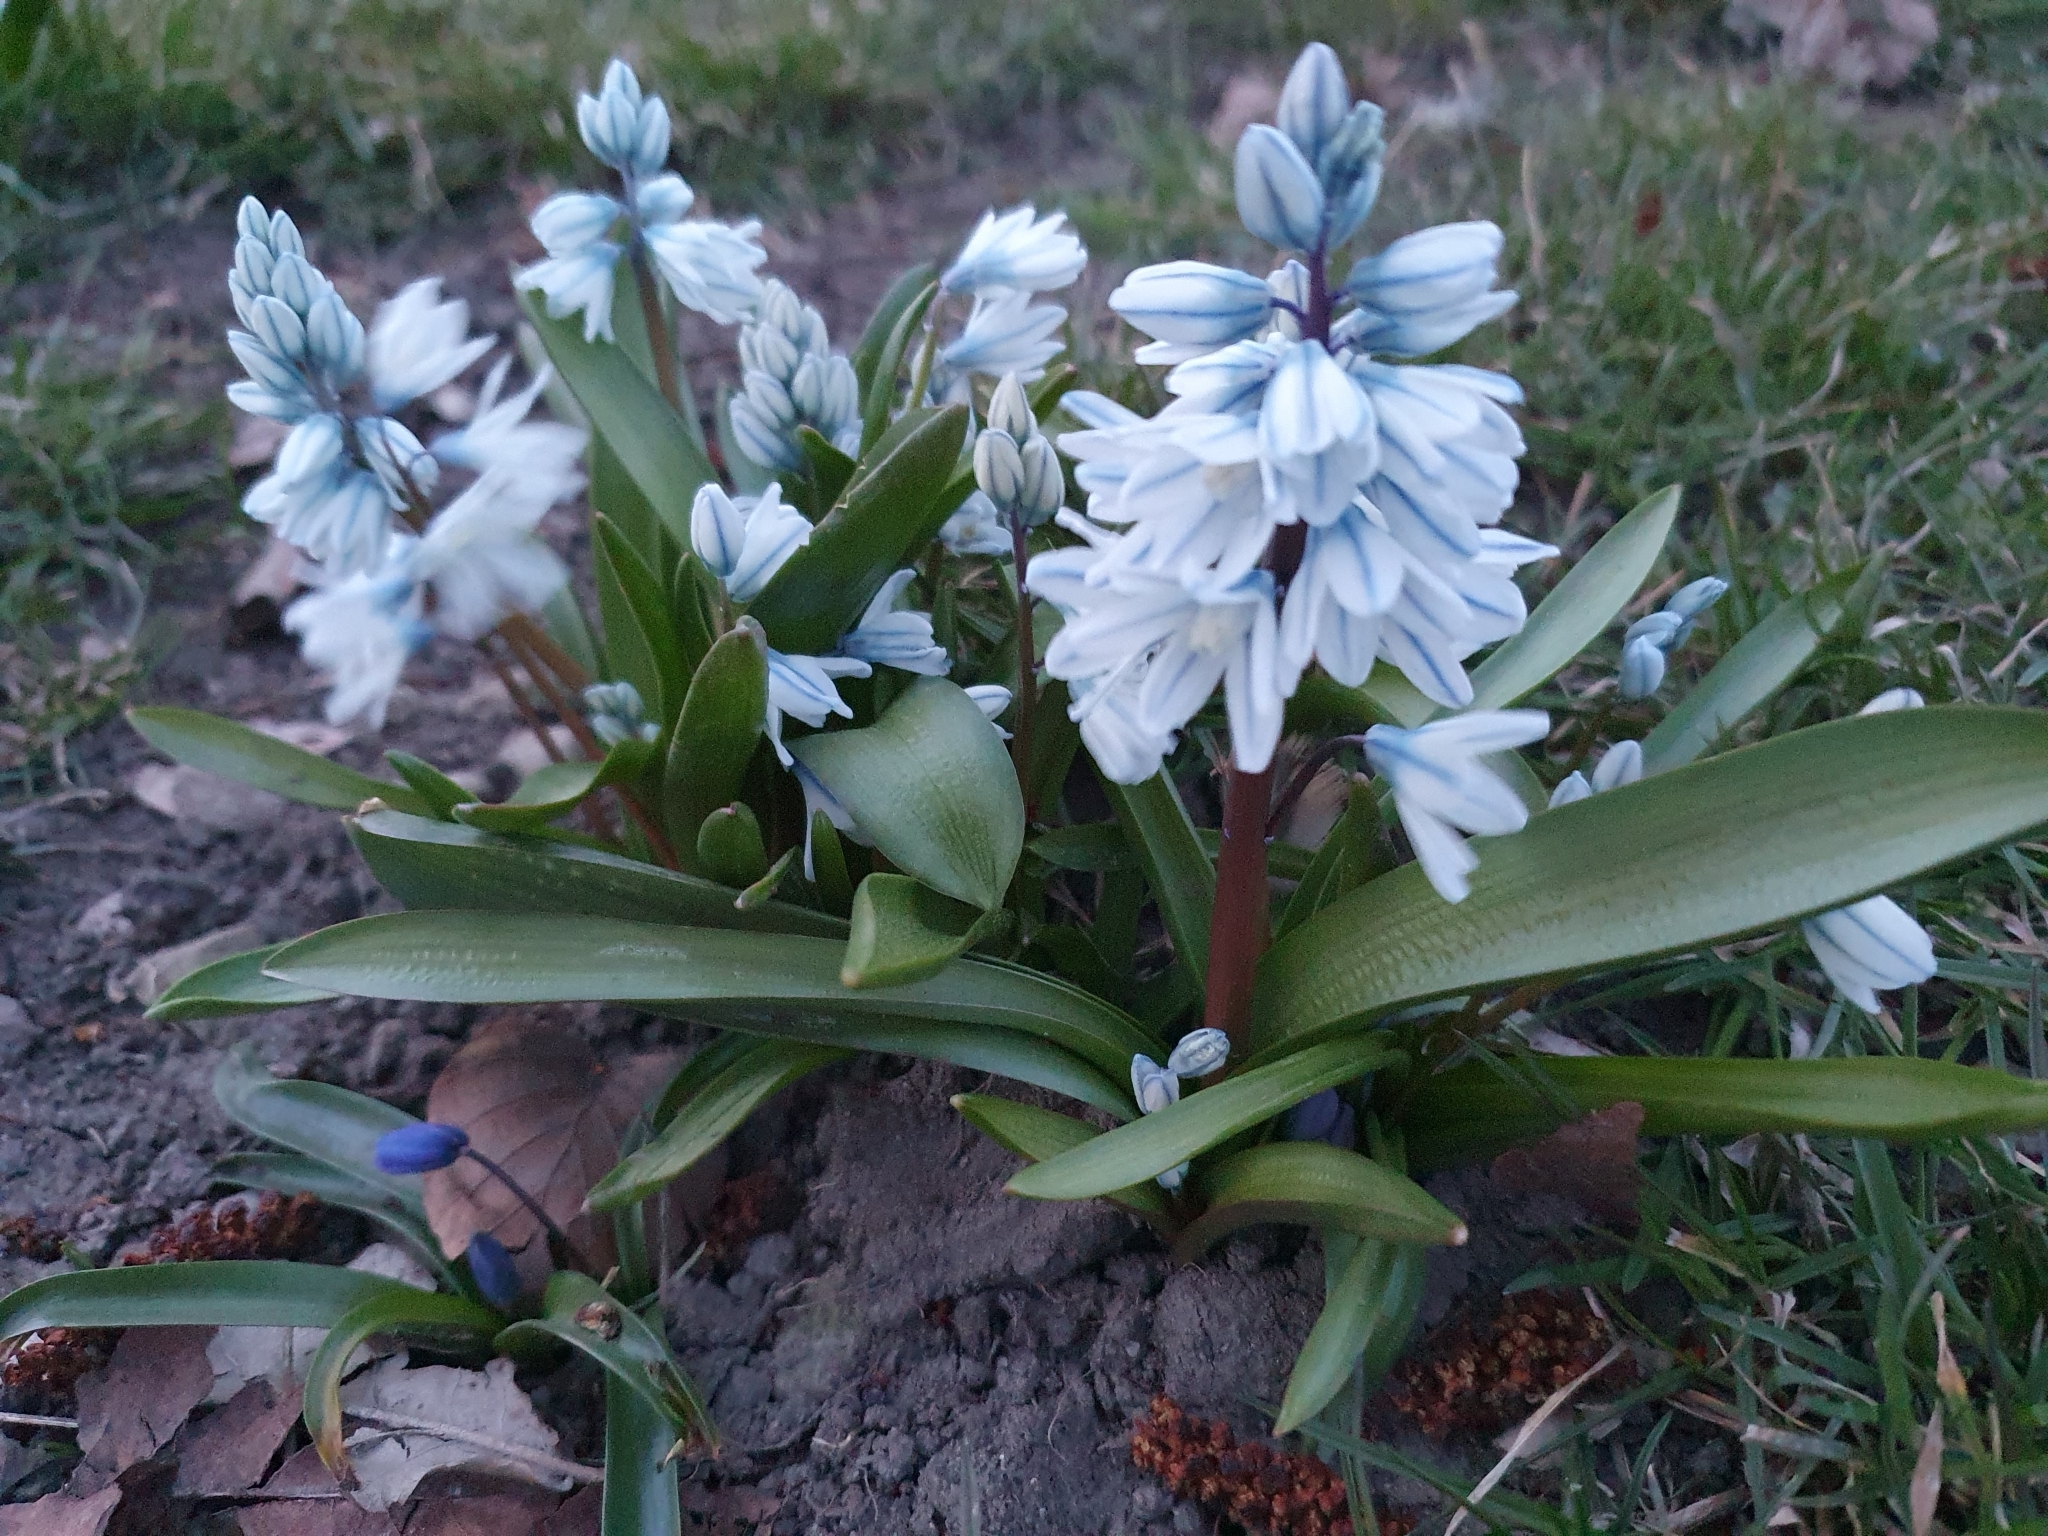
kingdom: Plantae
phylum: Tracheophyta
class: Liliopsida
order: Asparagales
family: Asparagaceae
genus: Puschkinia
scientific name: Puschkinia scilloides
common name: Striped squill
